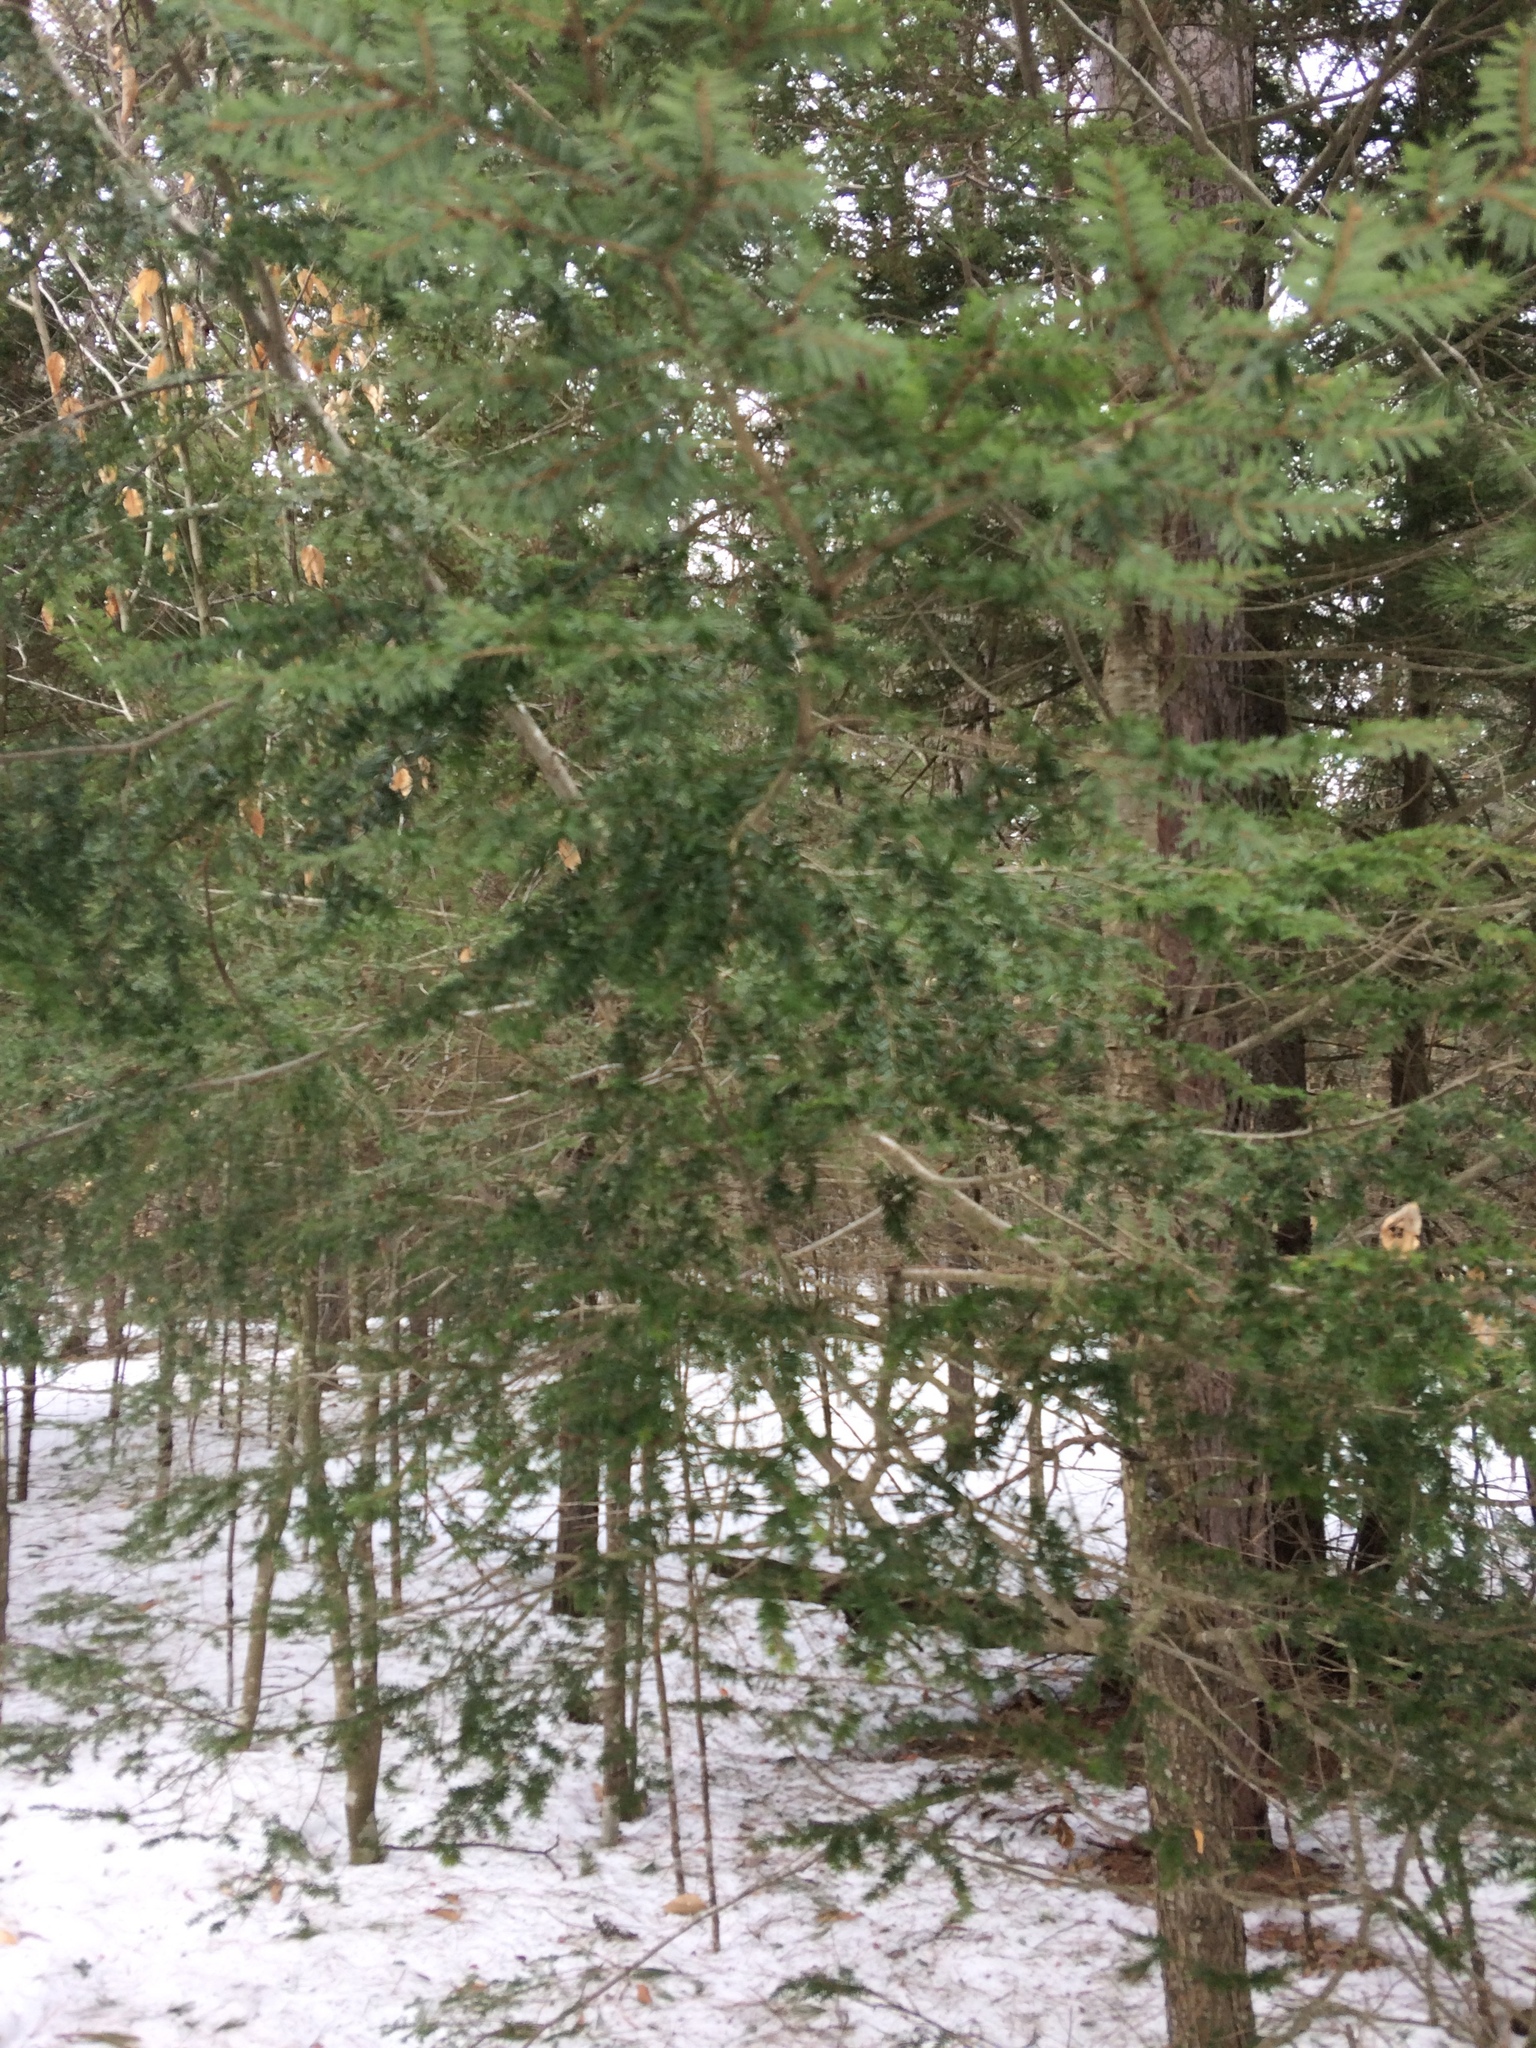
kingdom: Plantae
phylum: Tracheophyta
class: Pinopsida
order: Pinales
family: Pinaceae
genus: Tsuga
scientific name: Tsuga canadensis
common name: Eastern hemlock
